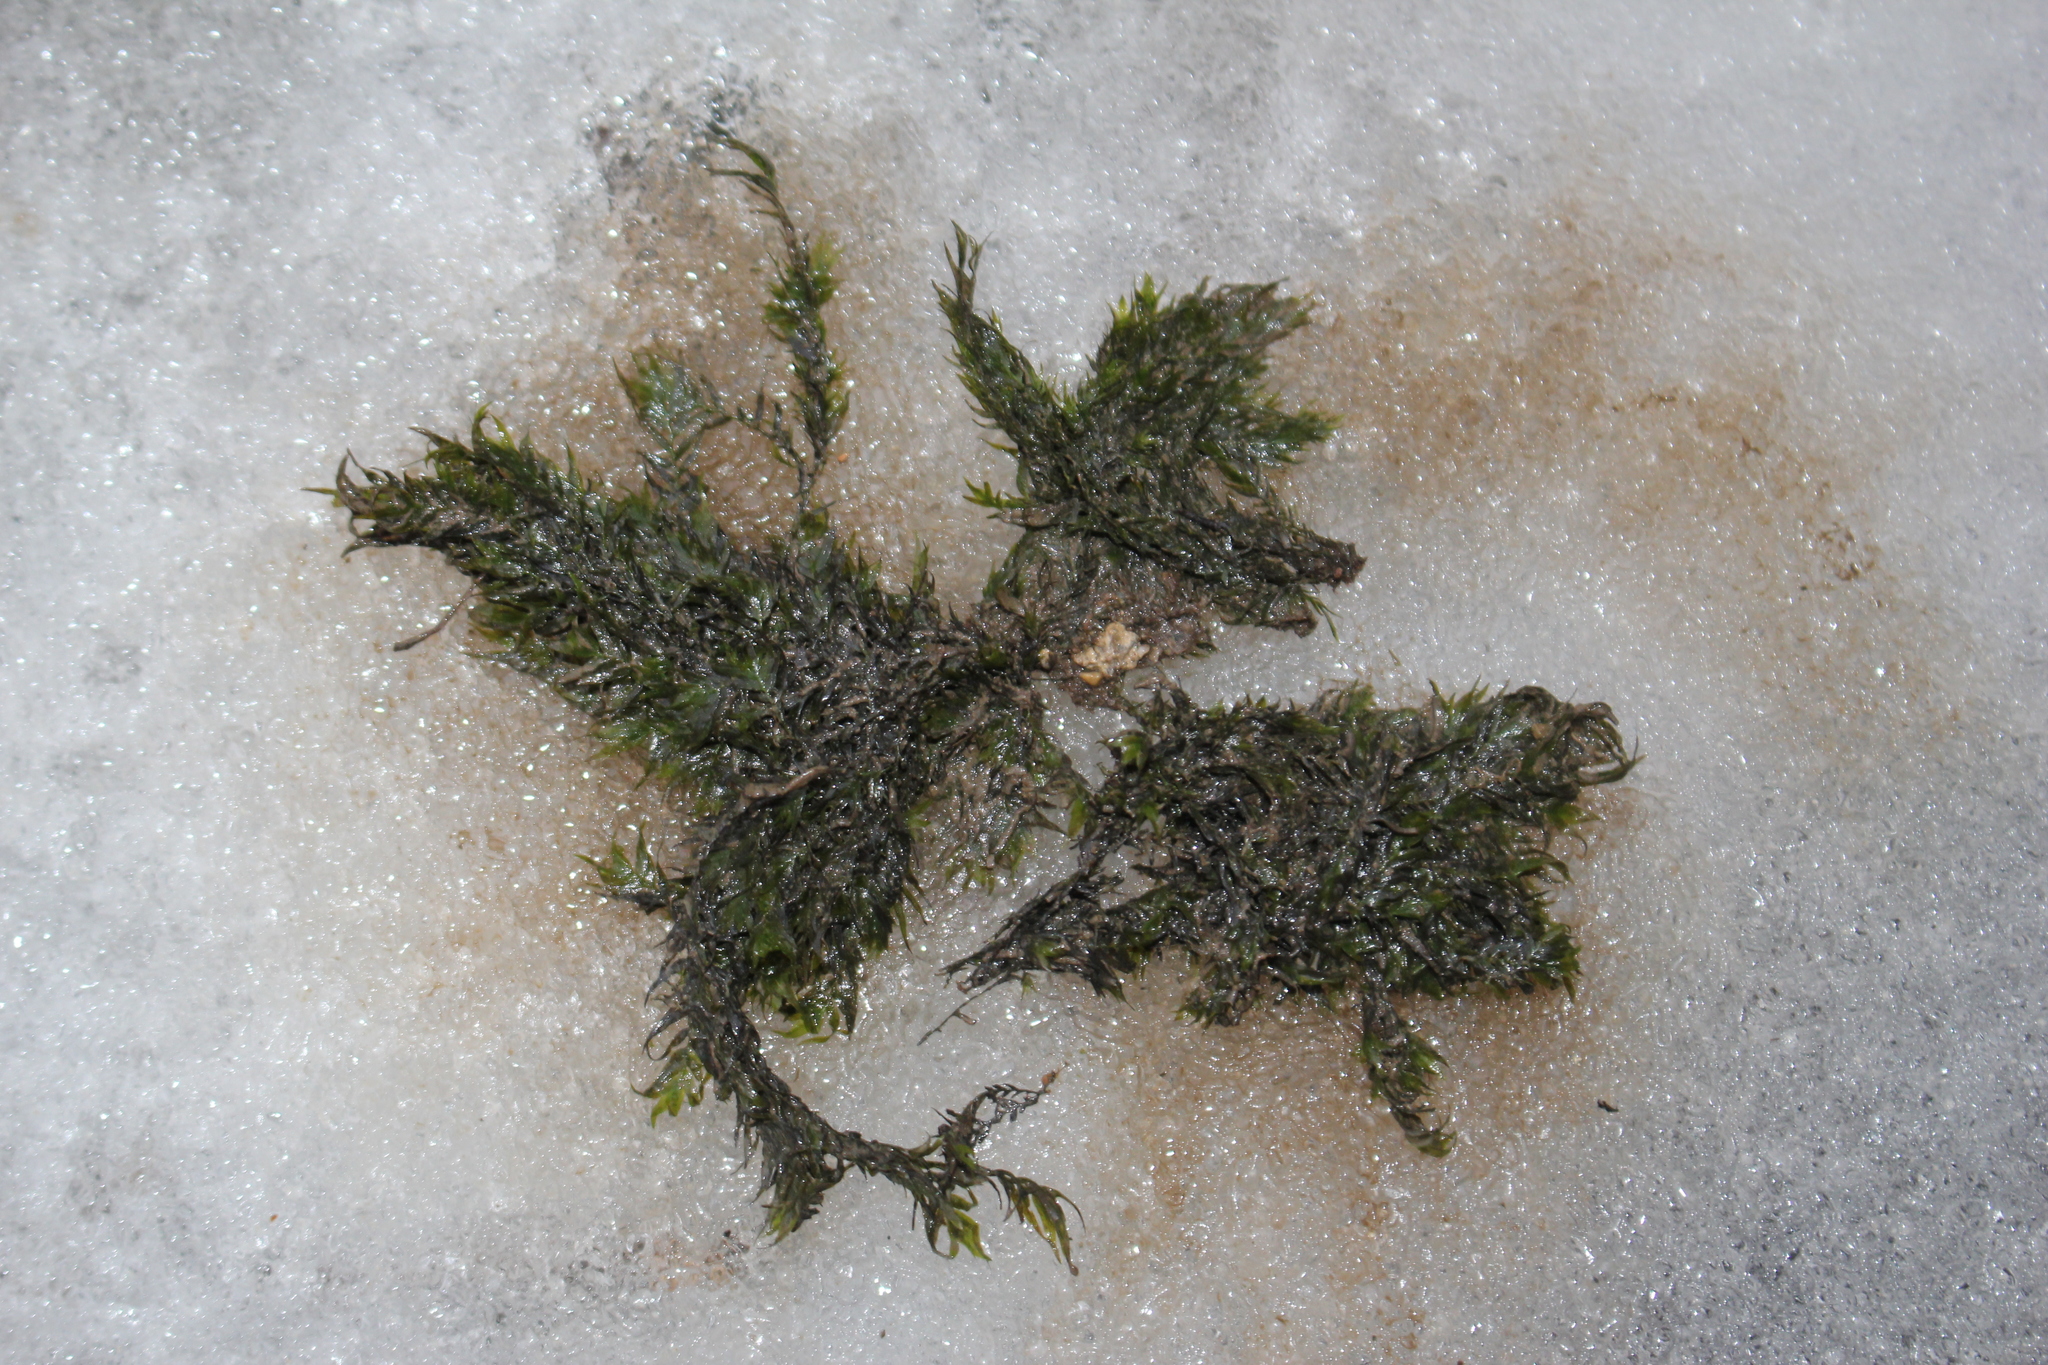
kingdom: Plantae
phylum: Bryophyta
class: Bryopsida
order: Dicranales
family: Fissidentaceae
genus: Fissidens
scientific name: Fissidens fontanus
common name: Fountain pocket-moss
